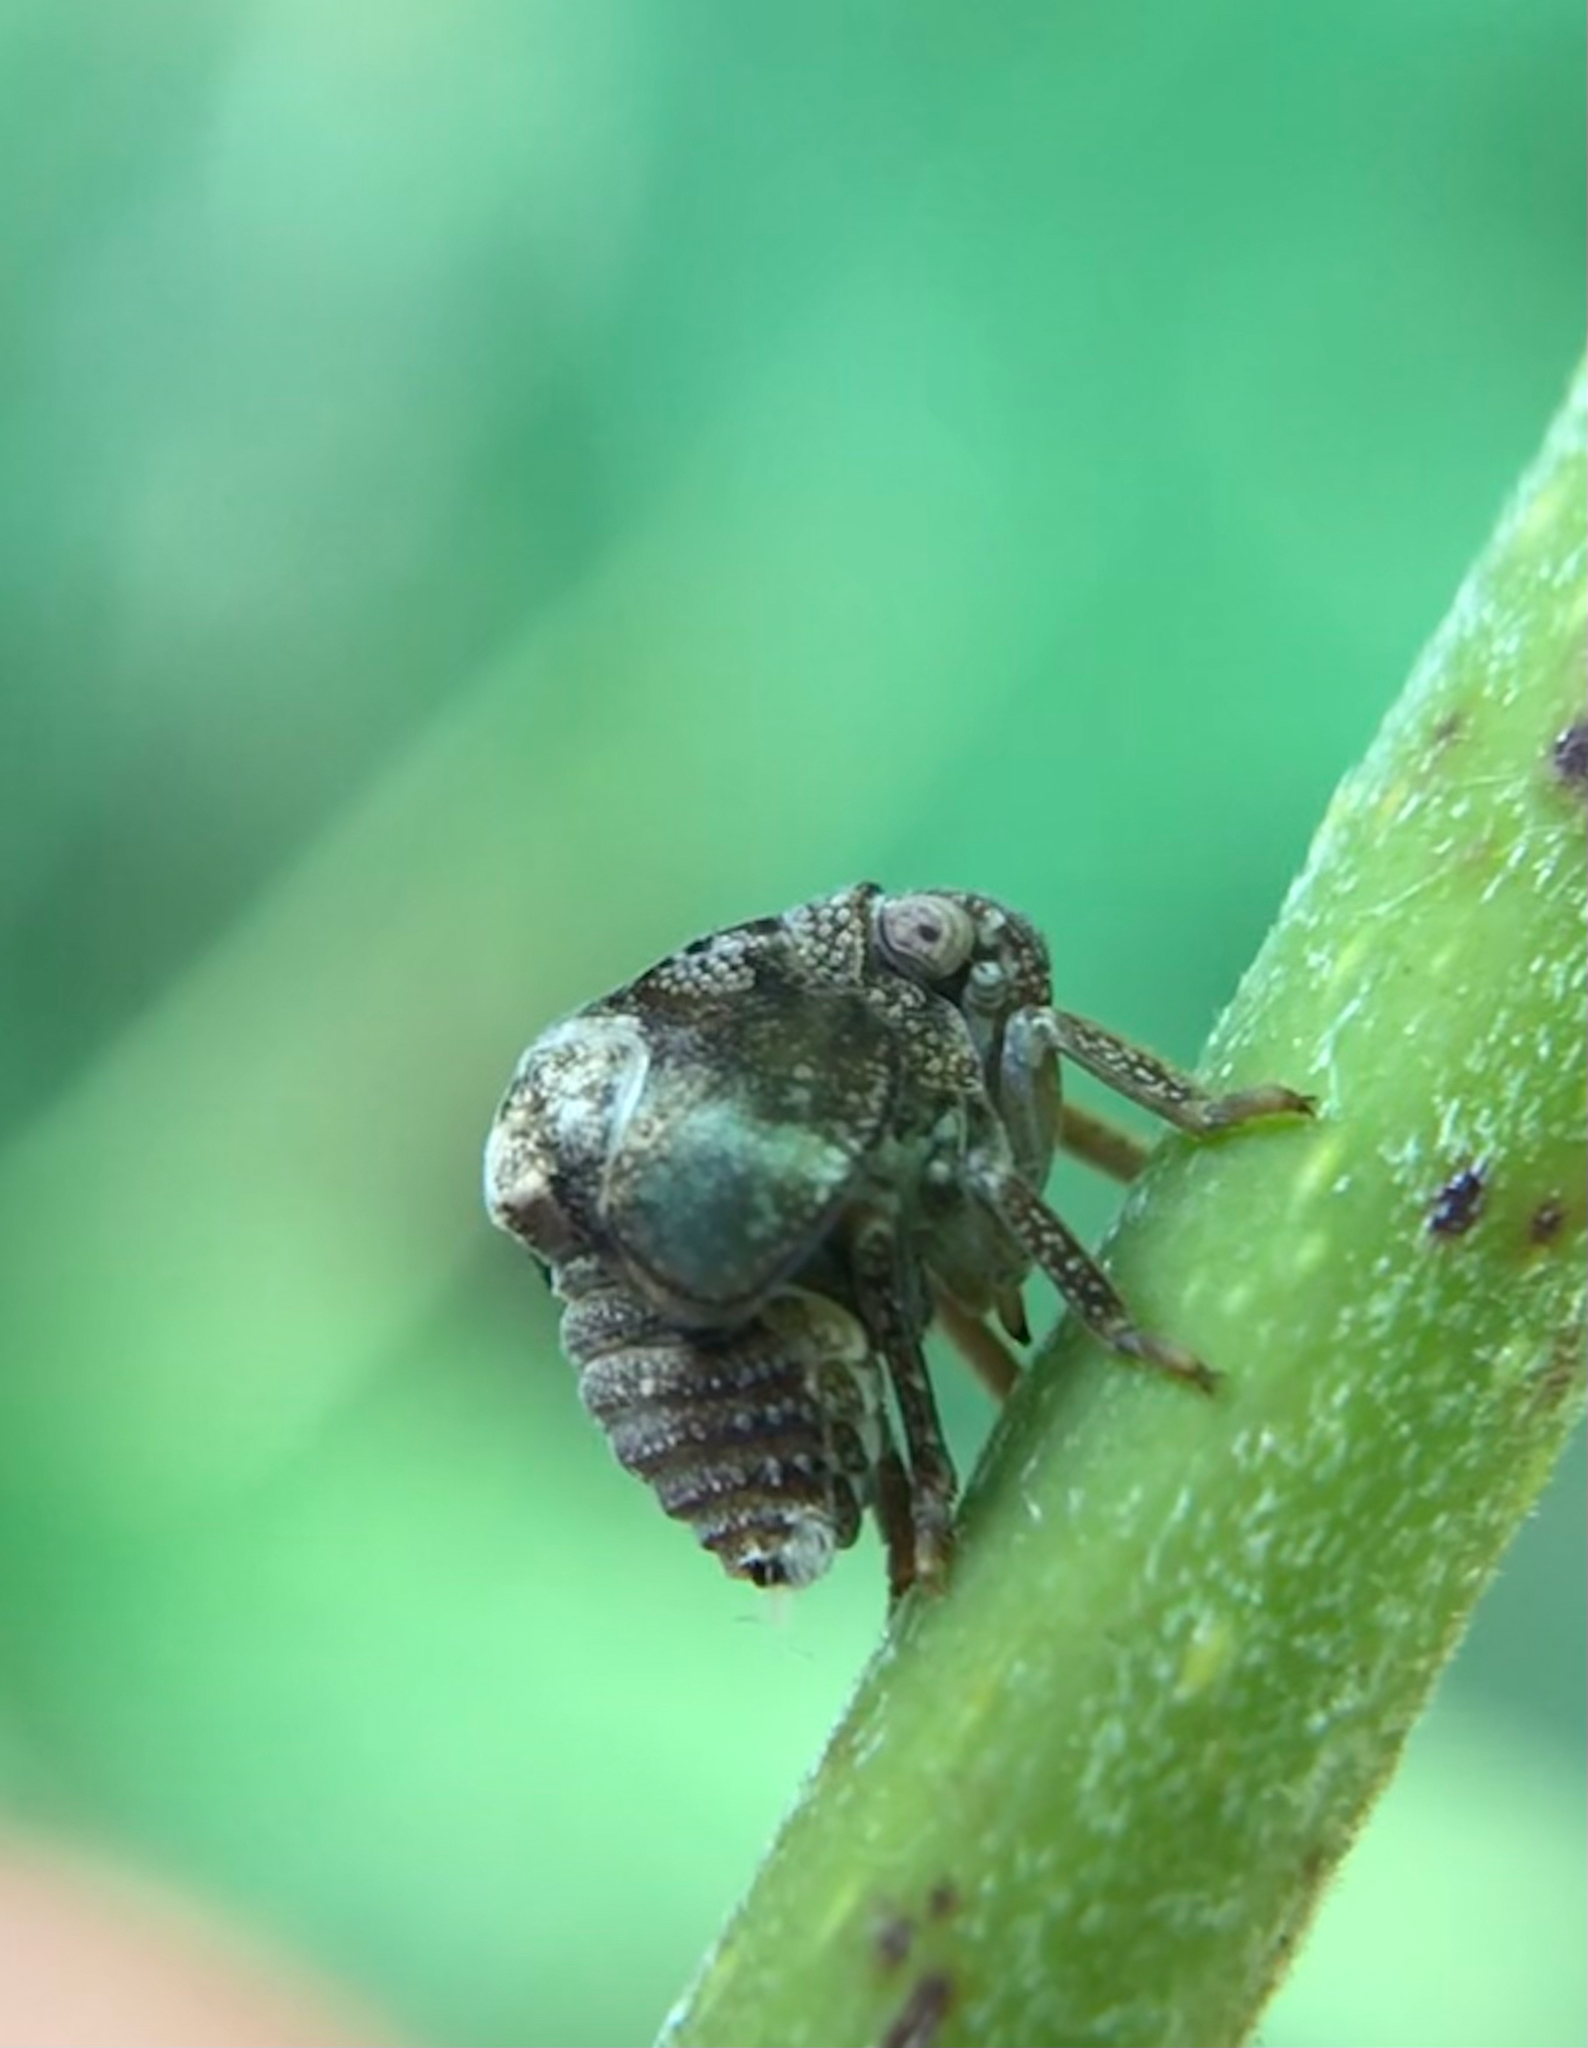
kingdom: Animalia
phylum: Arthropoda
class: Insecta
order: Hemiptera
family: Acanaloniidae
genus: Acanalonia
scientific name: Acanalonia bivittata
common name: Two-striped planthopper
